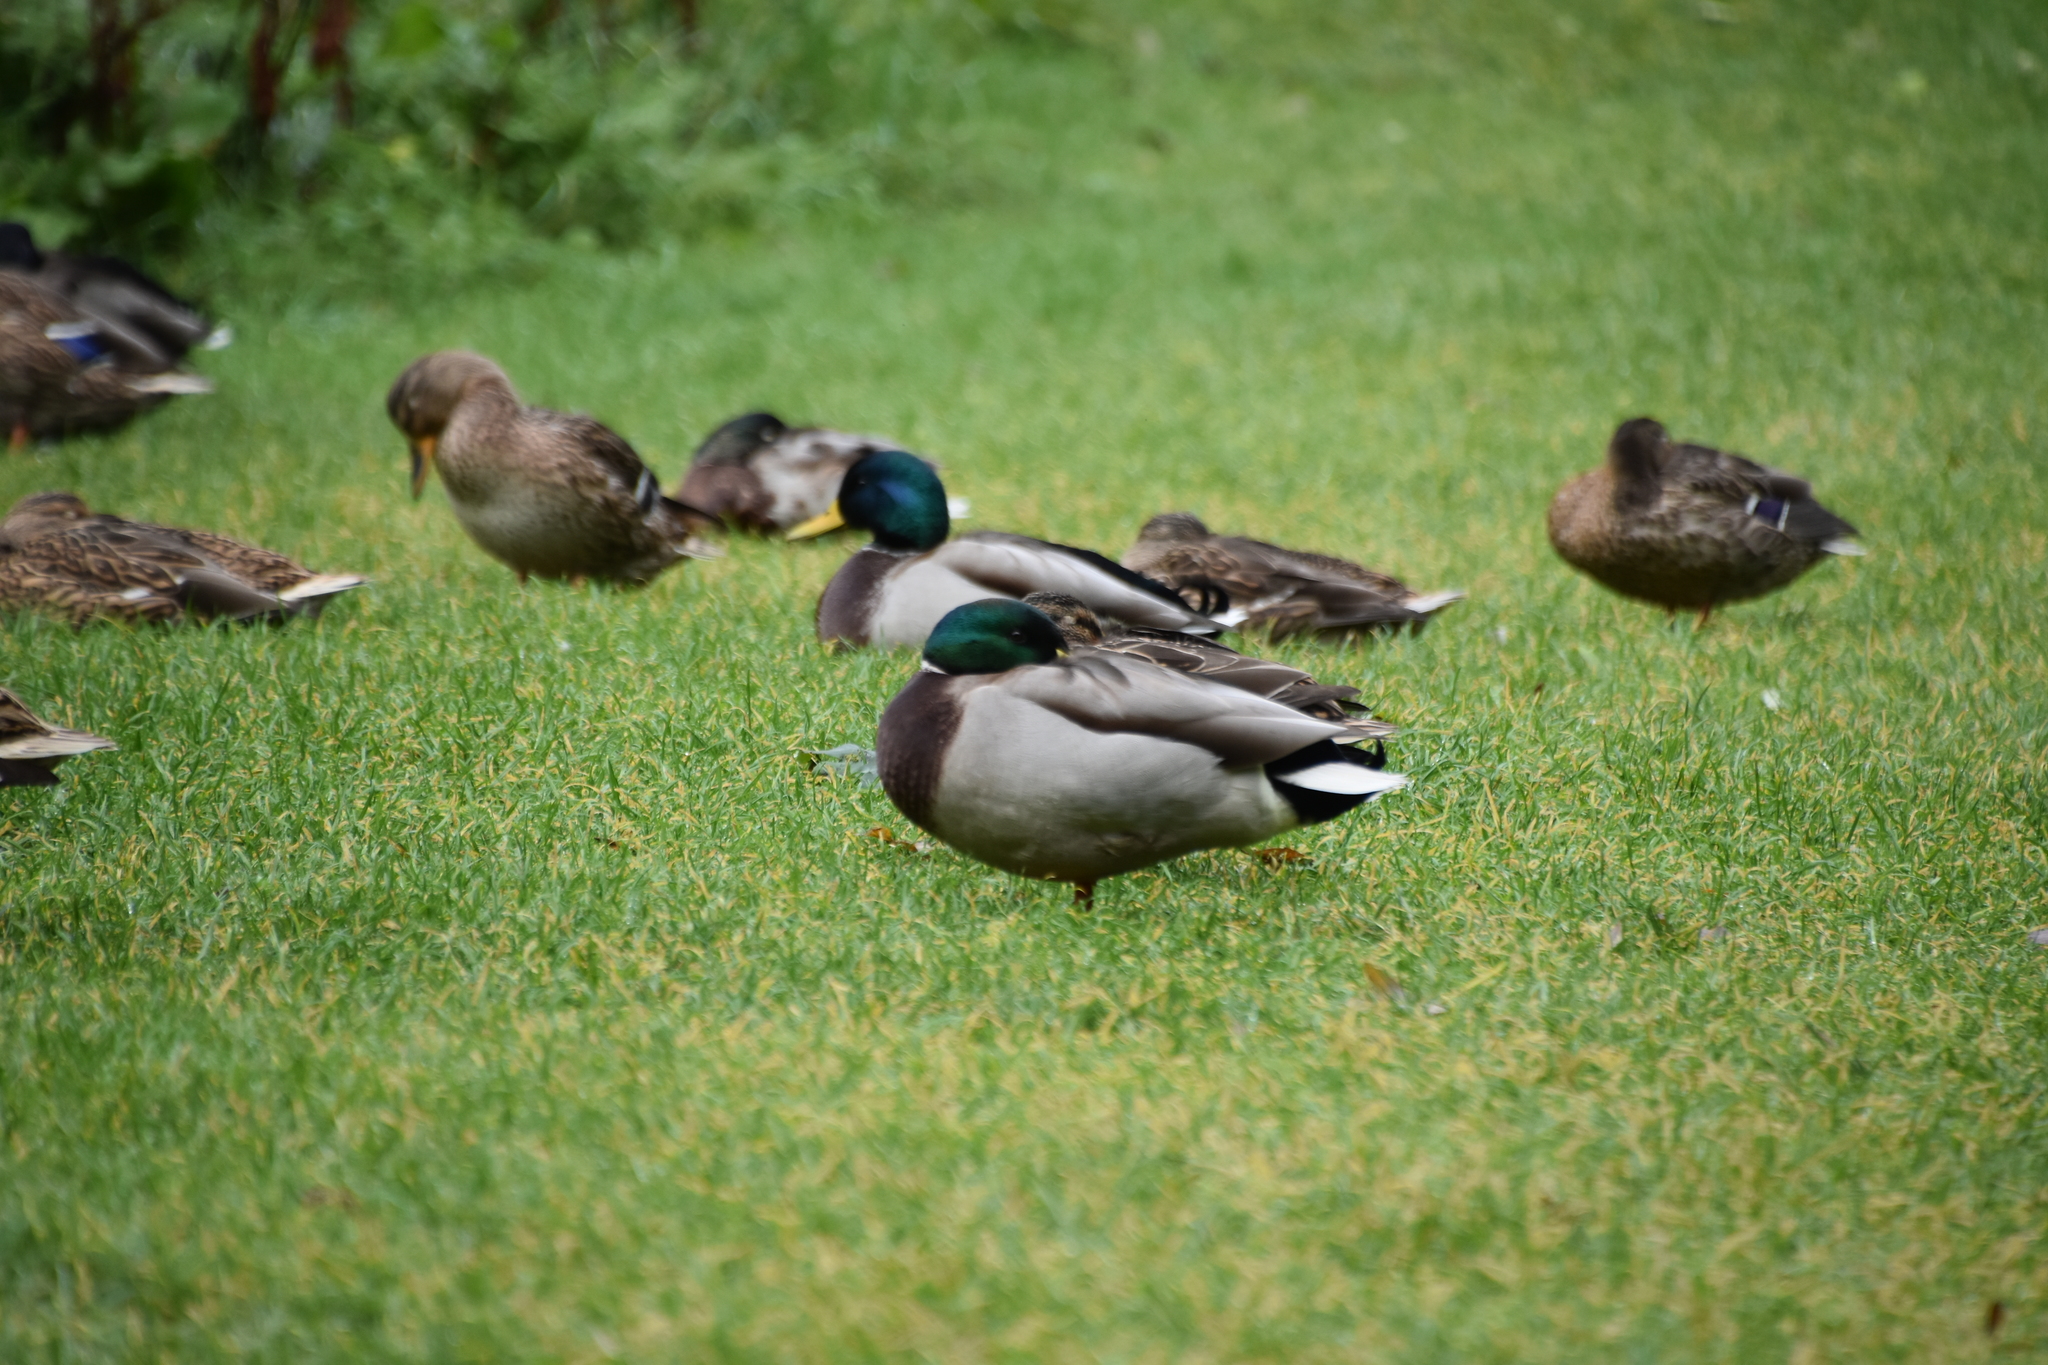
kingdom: Animalia
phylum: Chordata
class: Aves
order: Anseriformes
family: Anatidae
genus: Anas
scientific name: Anas platyrhynchos
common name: Mallard
